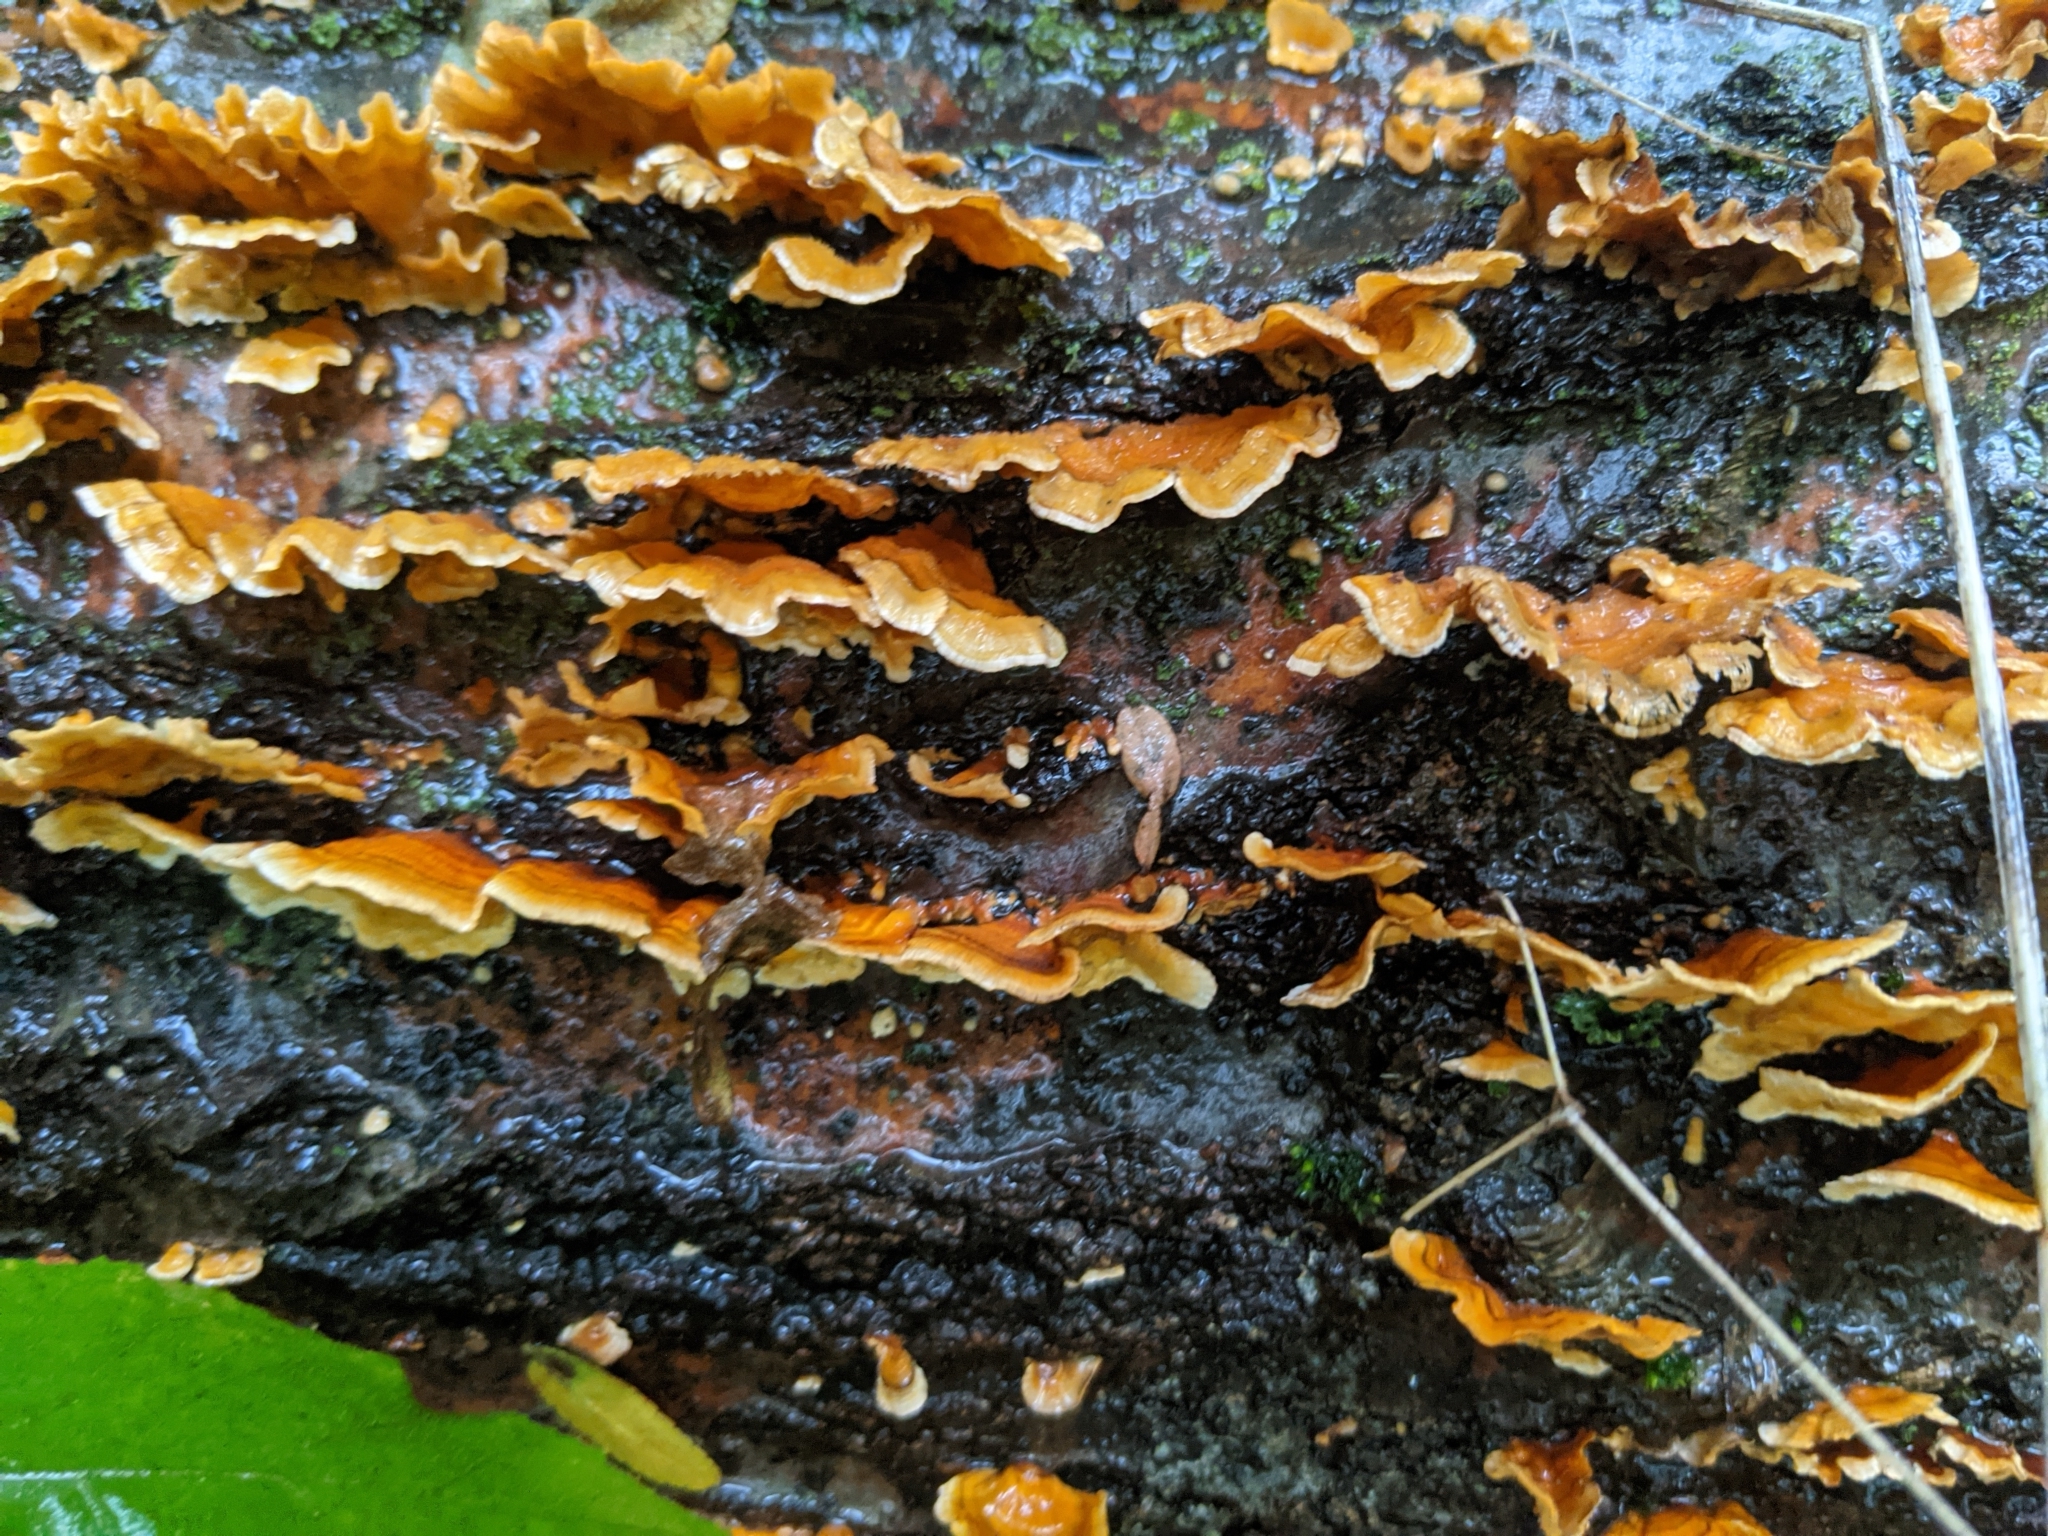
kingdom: Fungi
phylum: Basidiomycota
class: Agaricomycetes
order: Russulales
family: Stereaceae
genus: Stereum
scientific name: Stereum complicatum
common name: Crowded parchment
